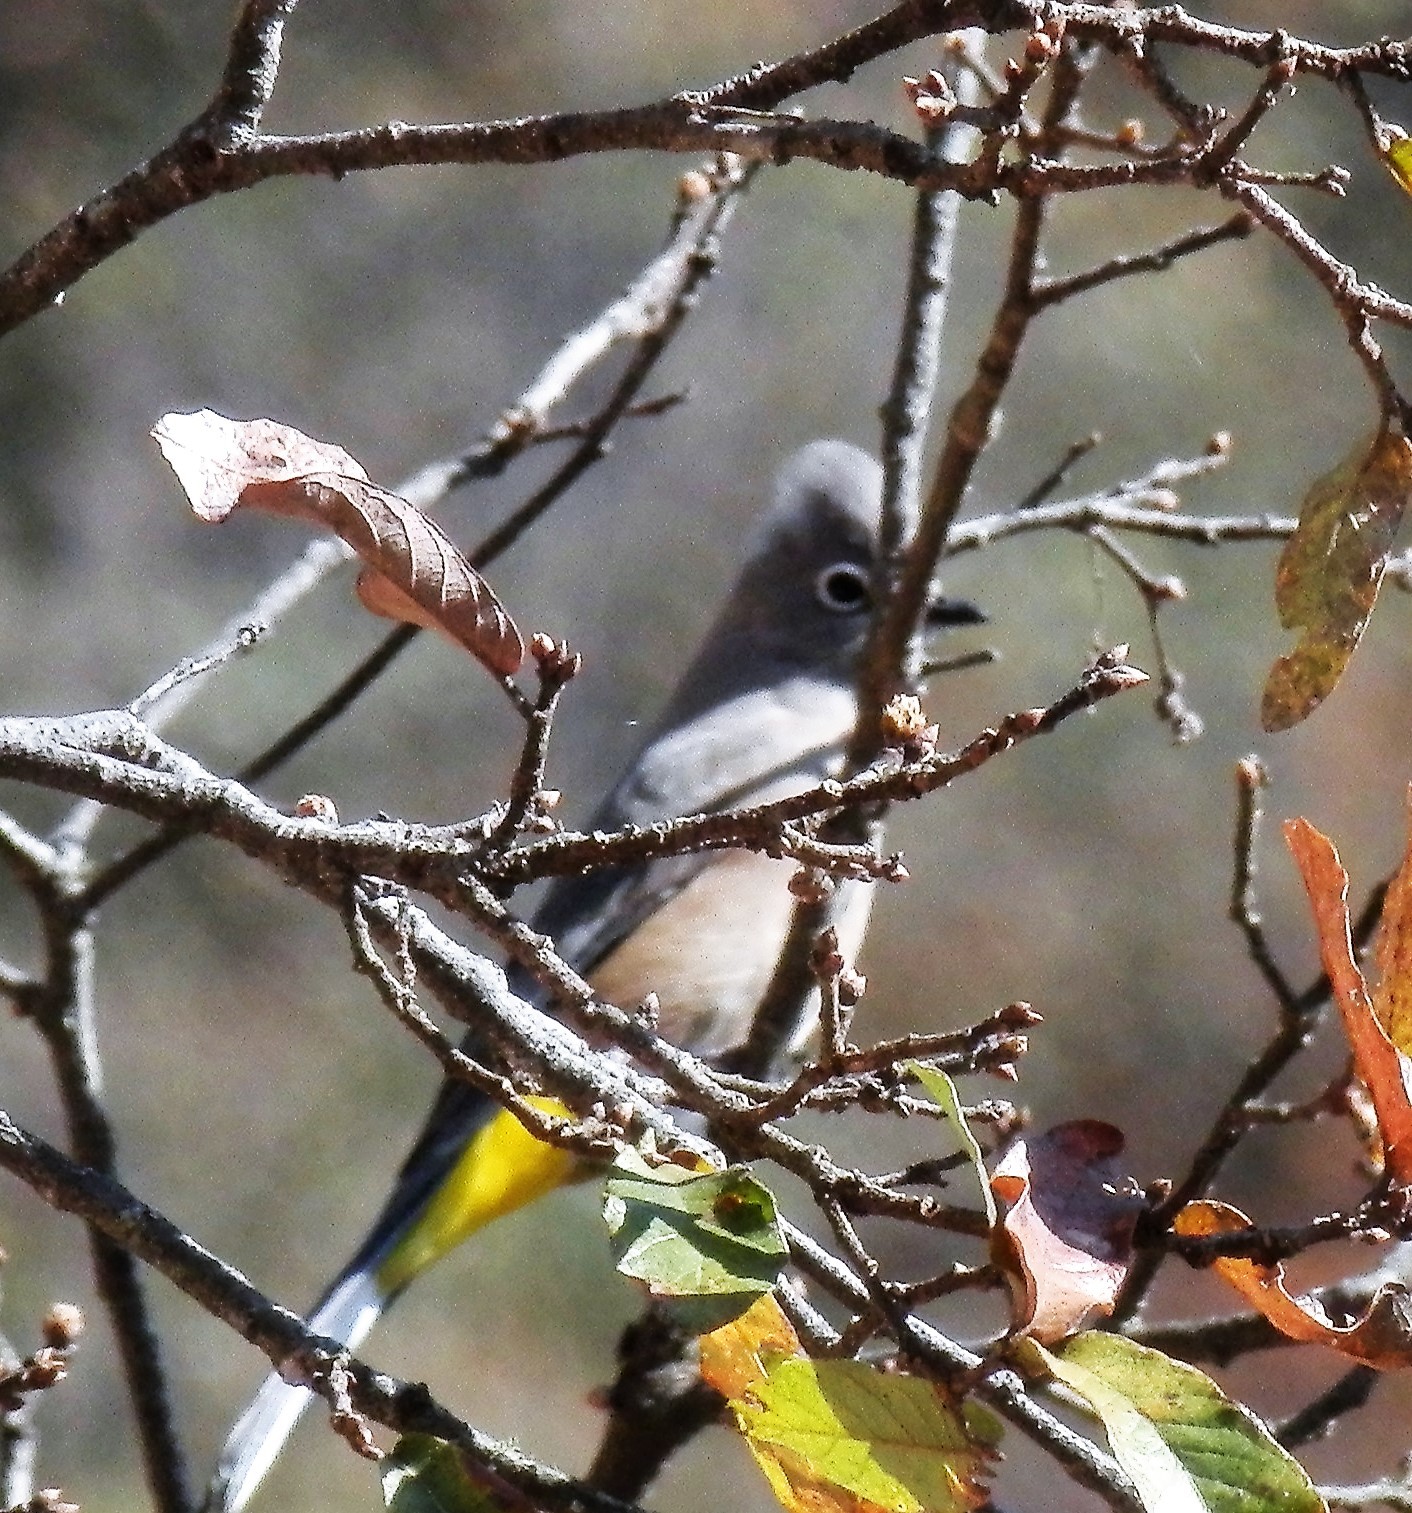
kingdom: Animalia
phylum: Chordata
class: Aves
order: Passeriformes
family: Ptilogonatidae
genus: Ptilogonys
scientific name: Ptilogonys cinereus
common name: Gray silky-flycatcher
